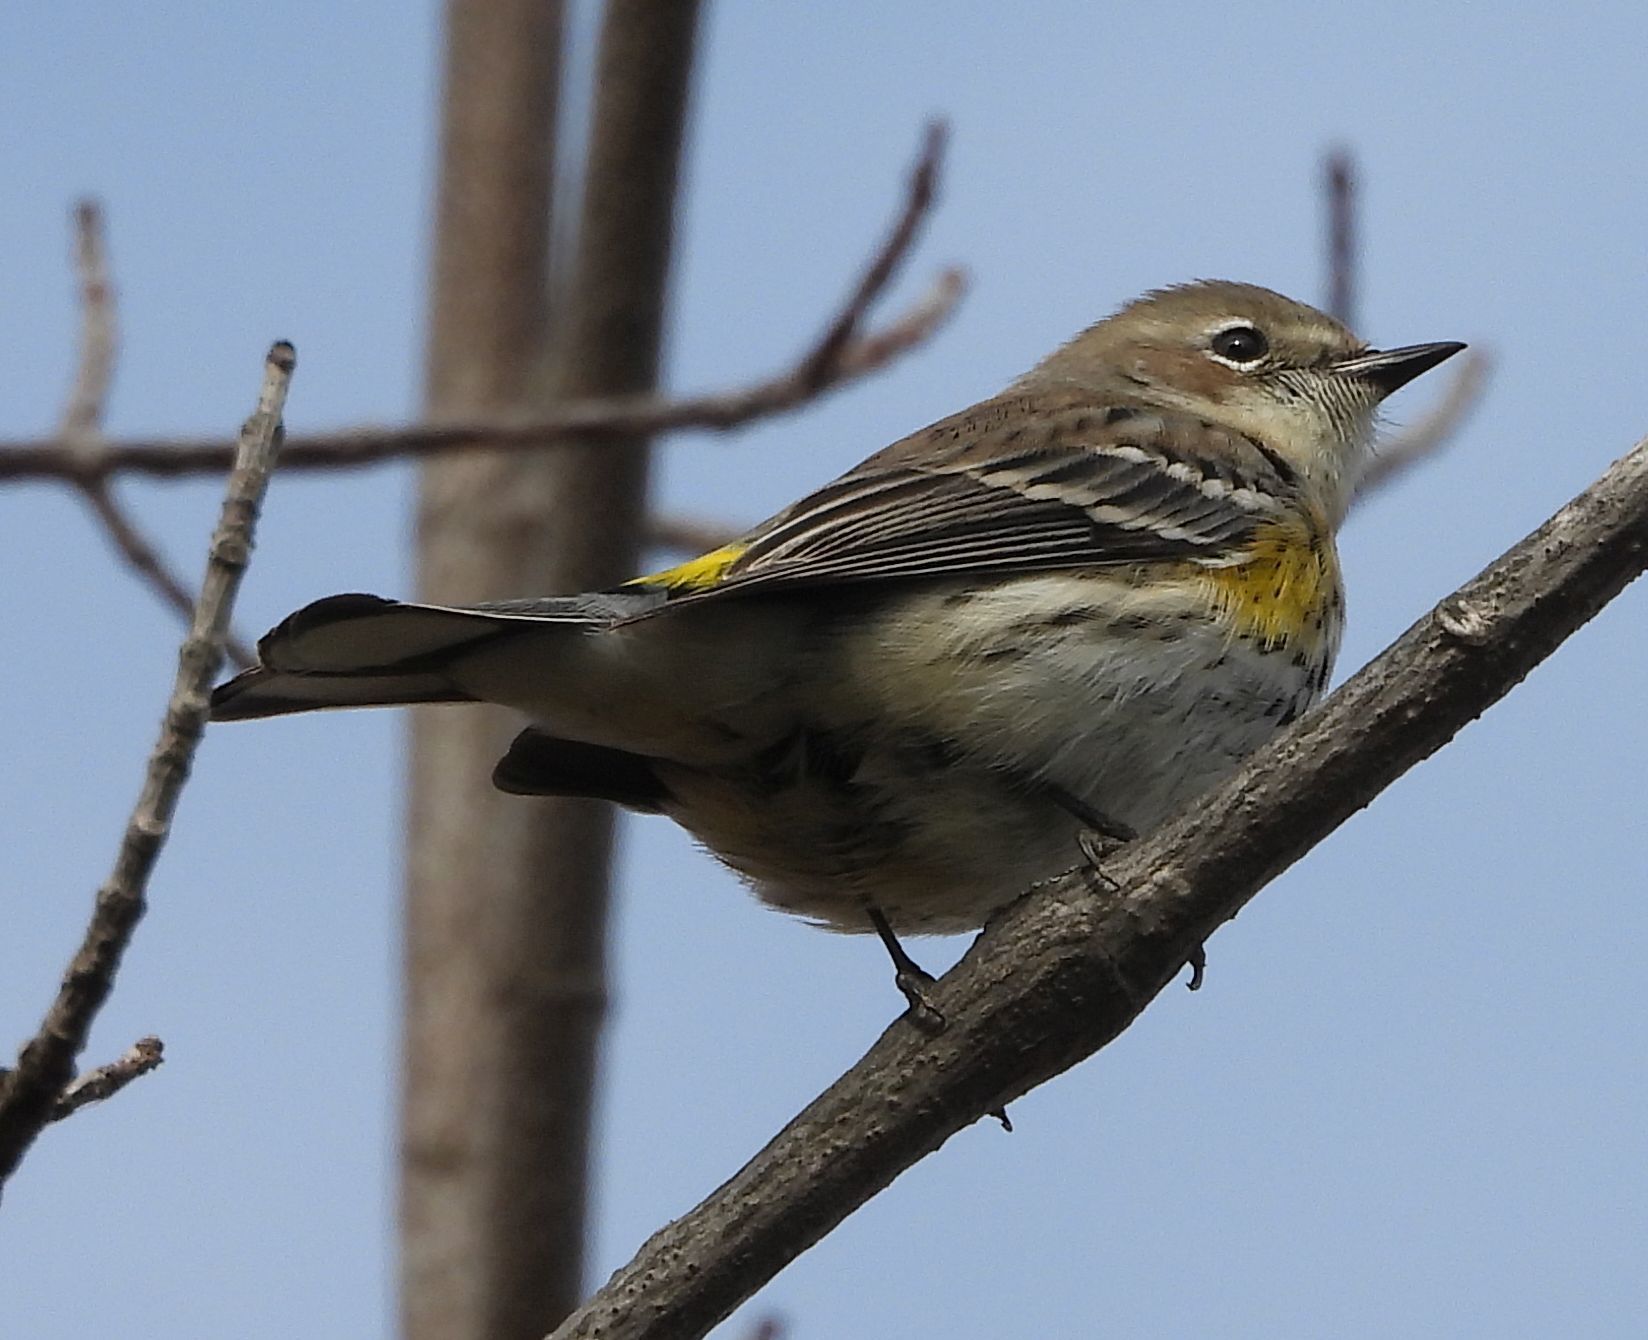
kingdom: Animalia
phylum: Chordata
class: Aves
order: Passeriformes
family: Parulidae
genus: Setophaga
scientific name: Setophaga coronata
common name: Myrtle warbler
